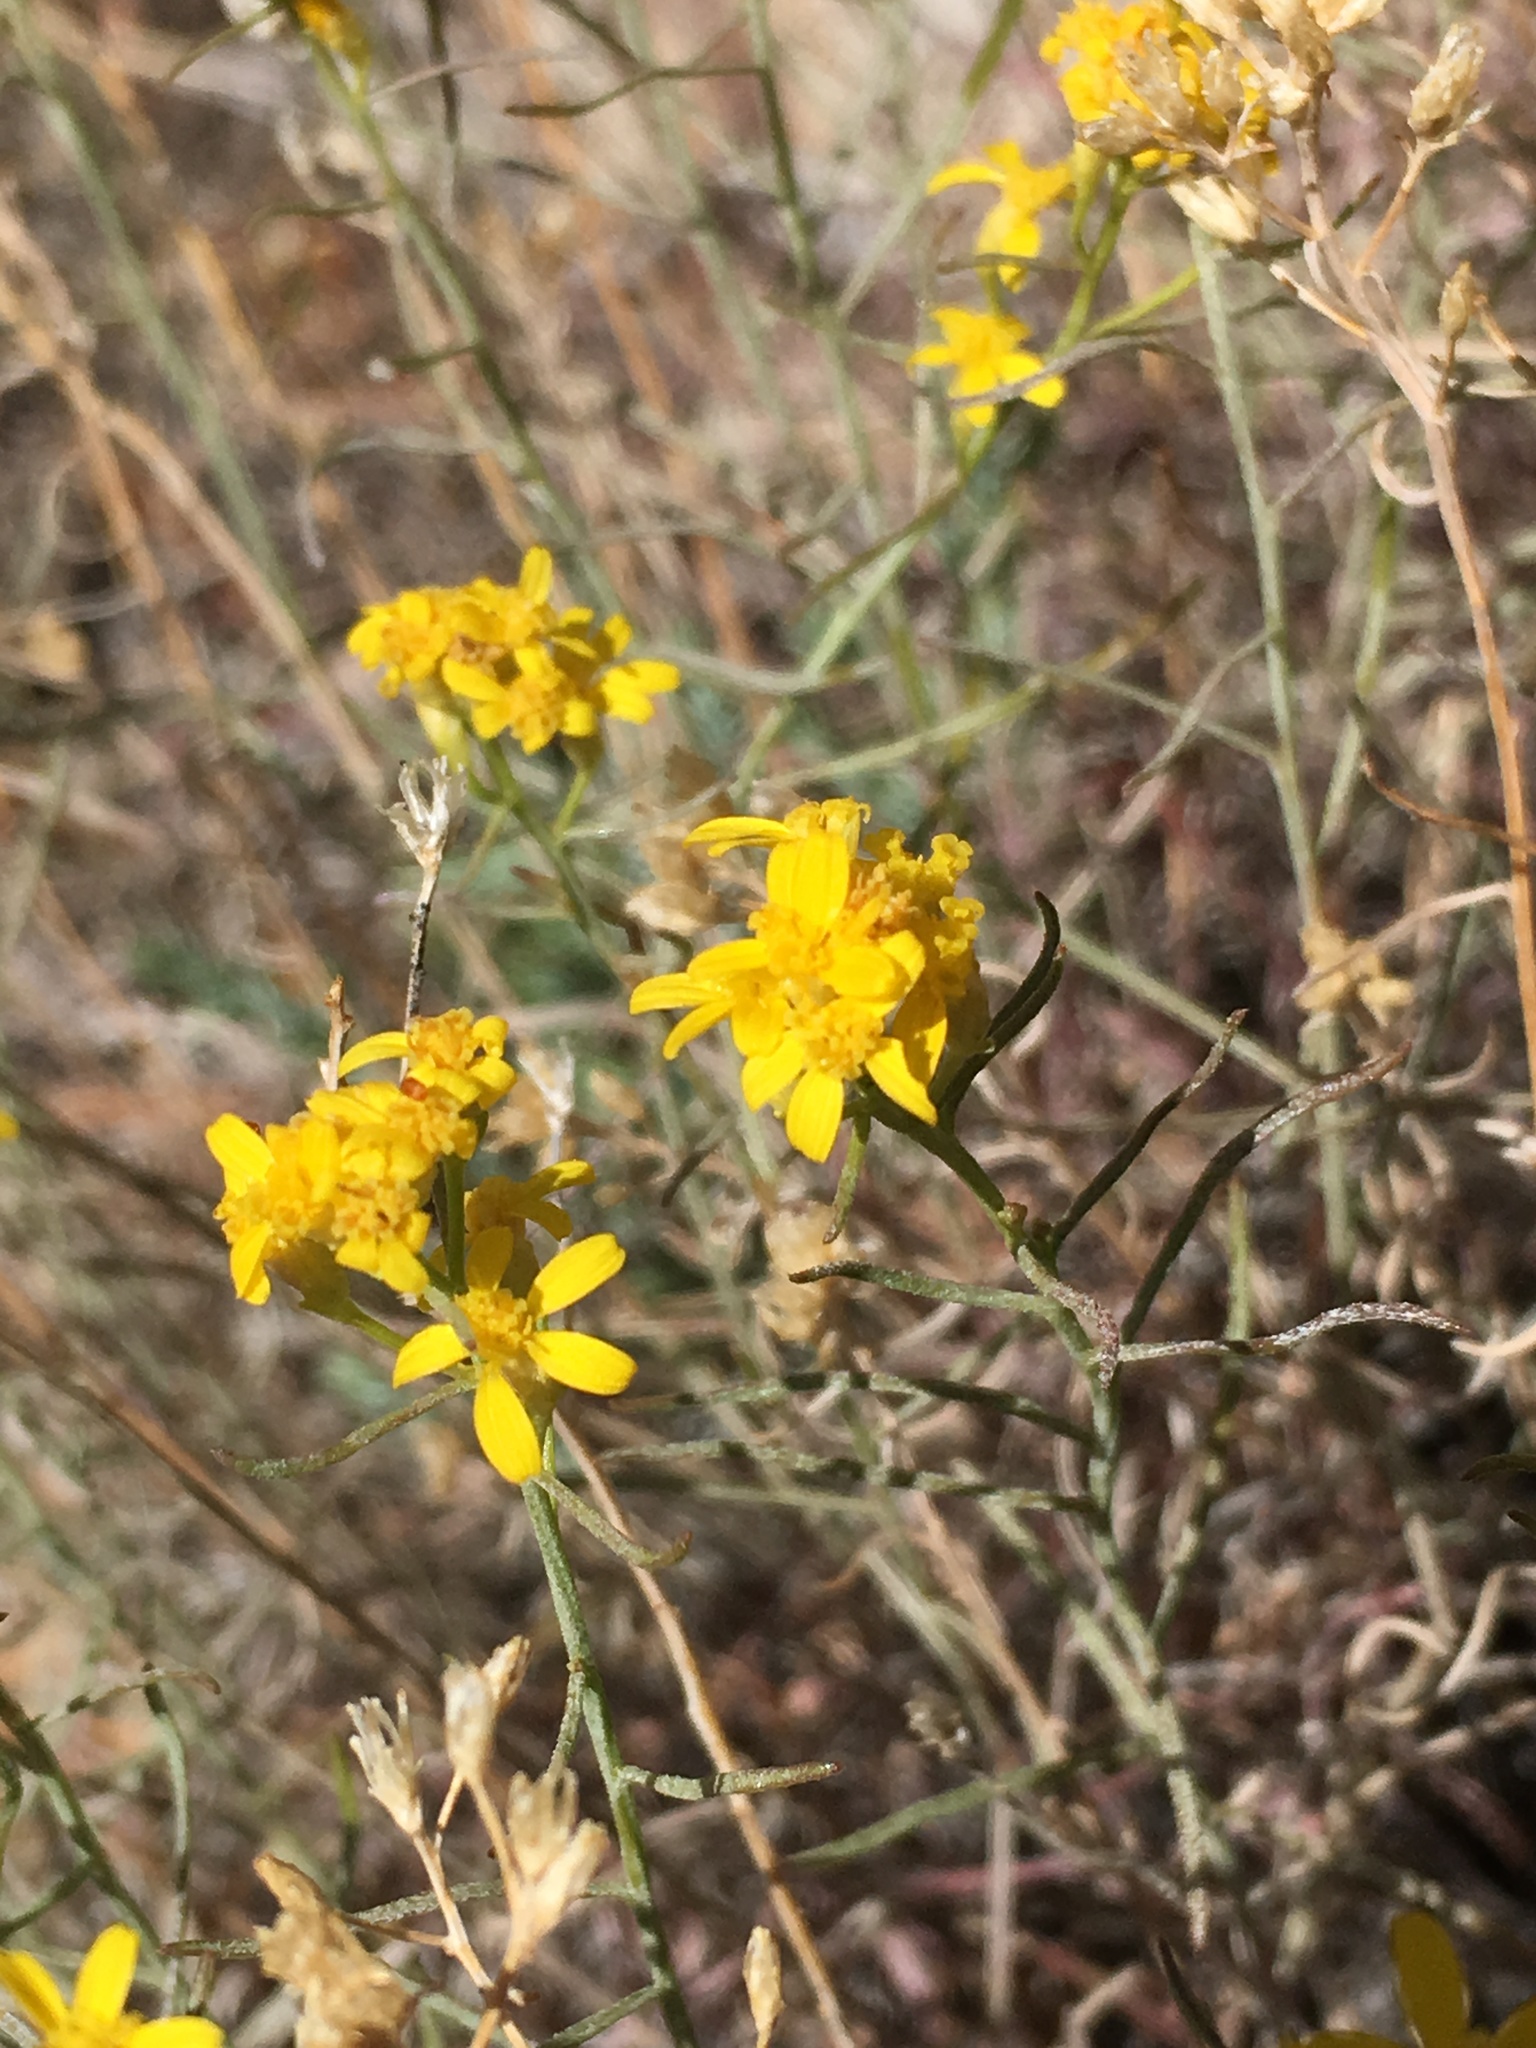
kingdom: Plantae
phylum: Tracheophyta
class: Magnoliopsida
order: Asterales
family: Asteraceae
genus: Gutierrezia
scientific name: Gutierrezia sarothrae
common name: Broom snakeweed
